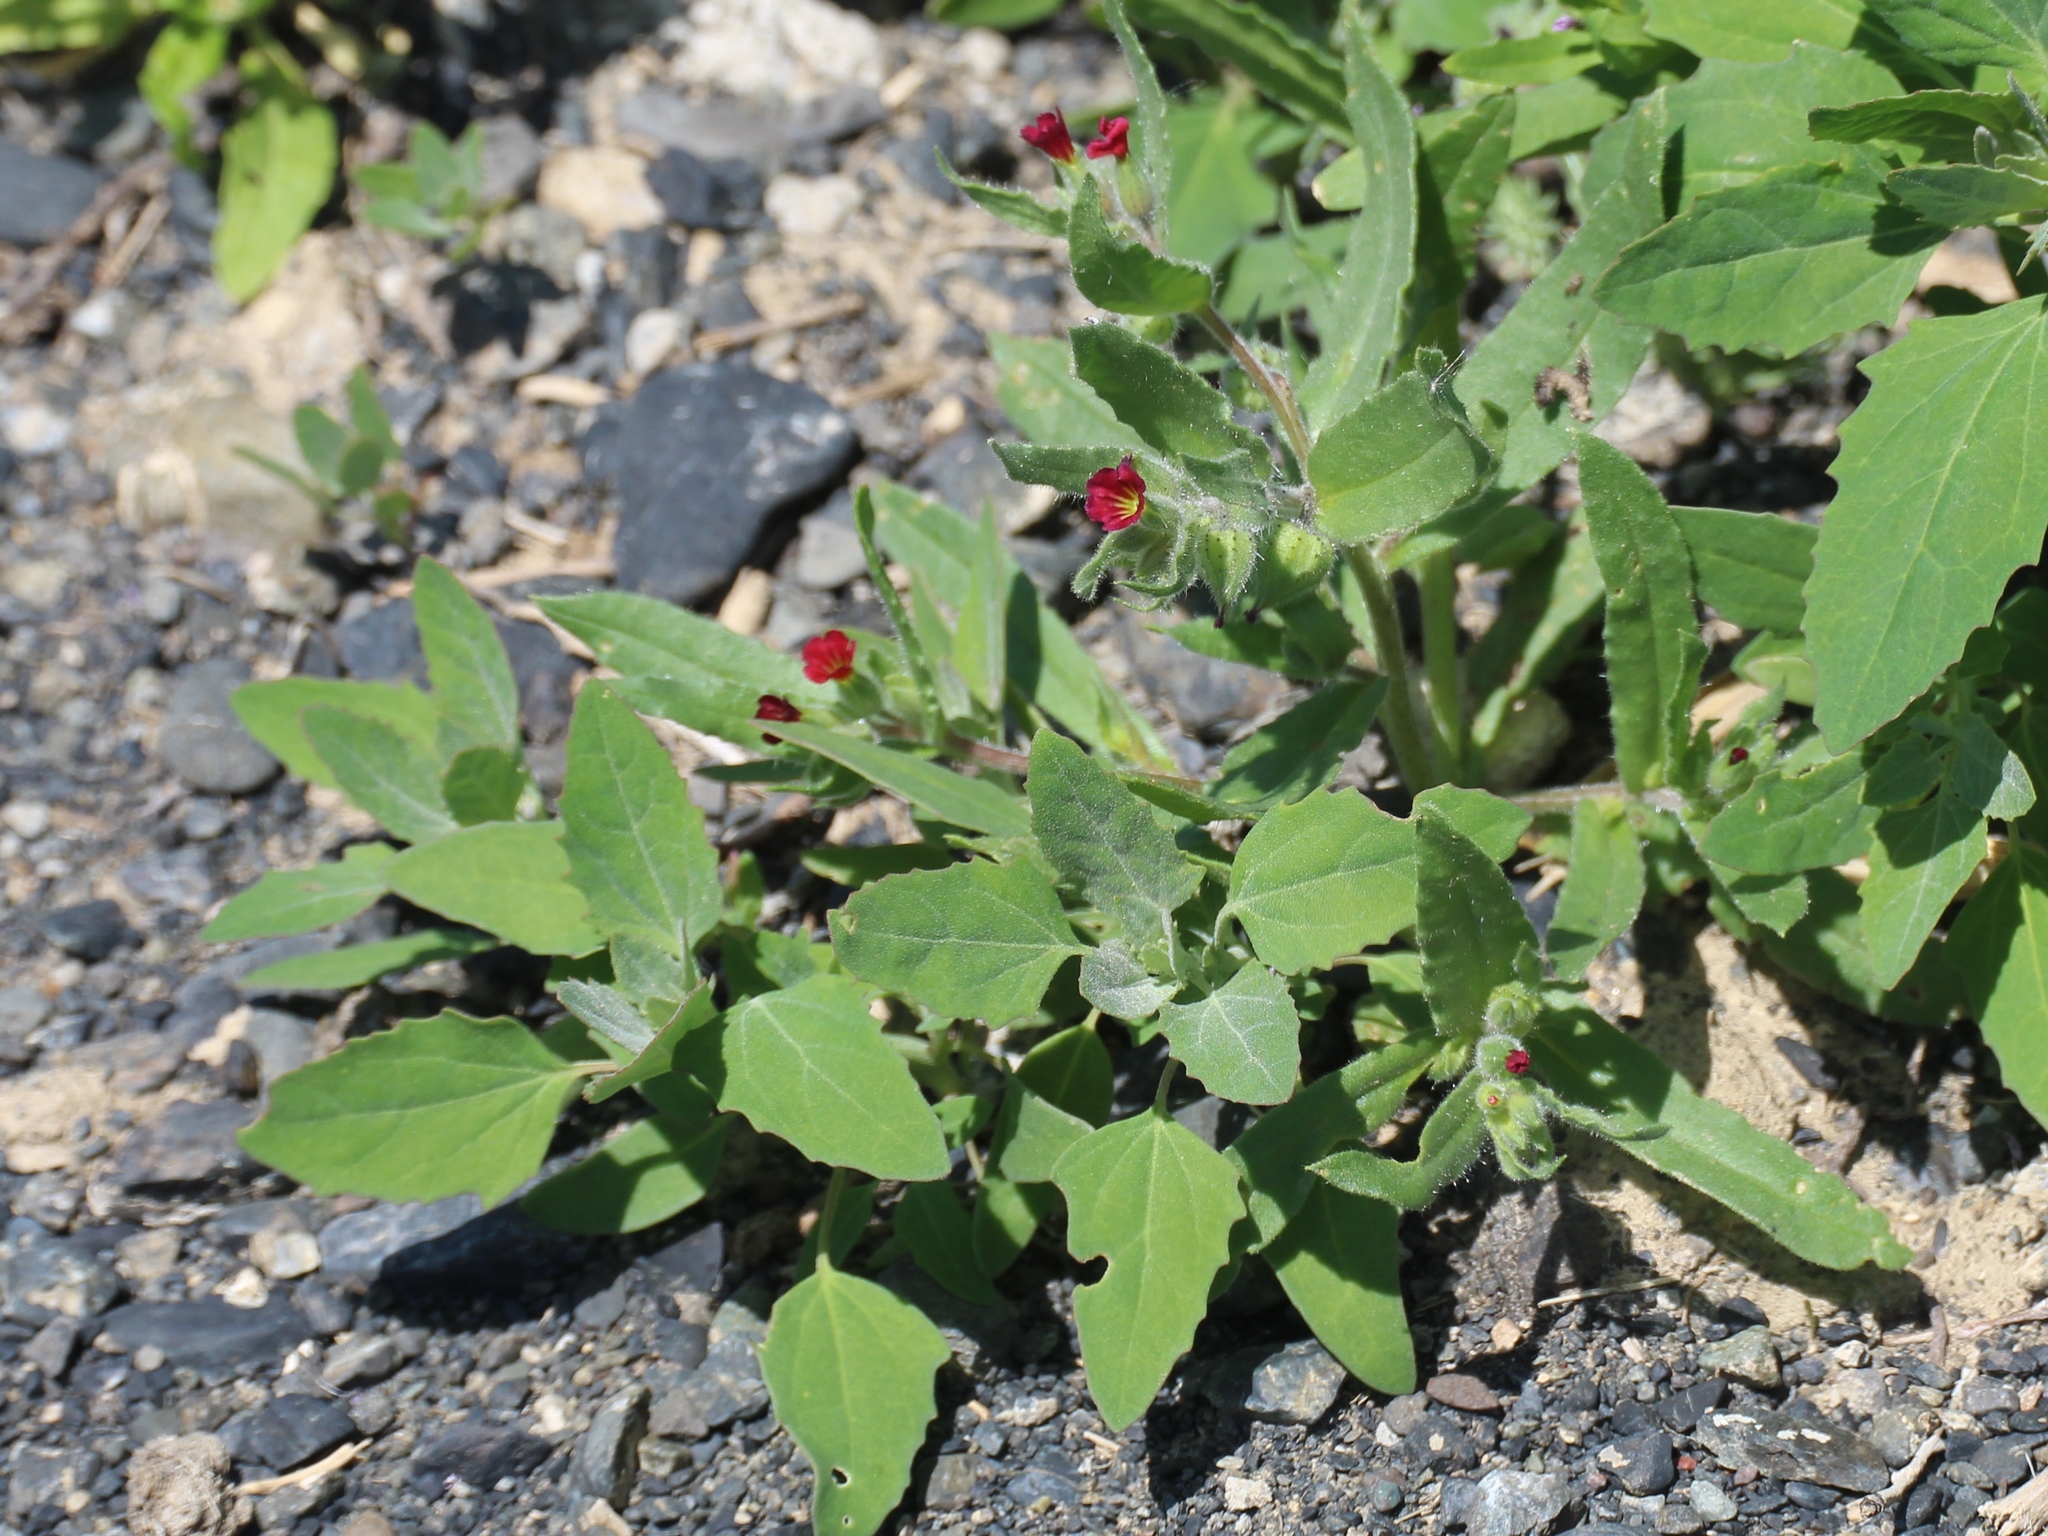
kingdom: Plantae
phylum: Tracheophyta
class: Magnoliopsida
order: Caryophyllales
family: Amaranthaceae
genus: Chenopodium
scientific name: Chenopodium album
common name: Fat-hen
